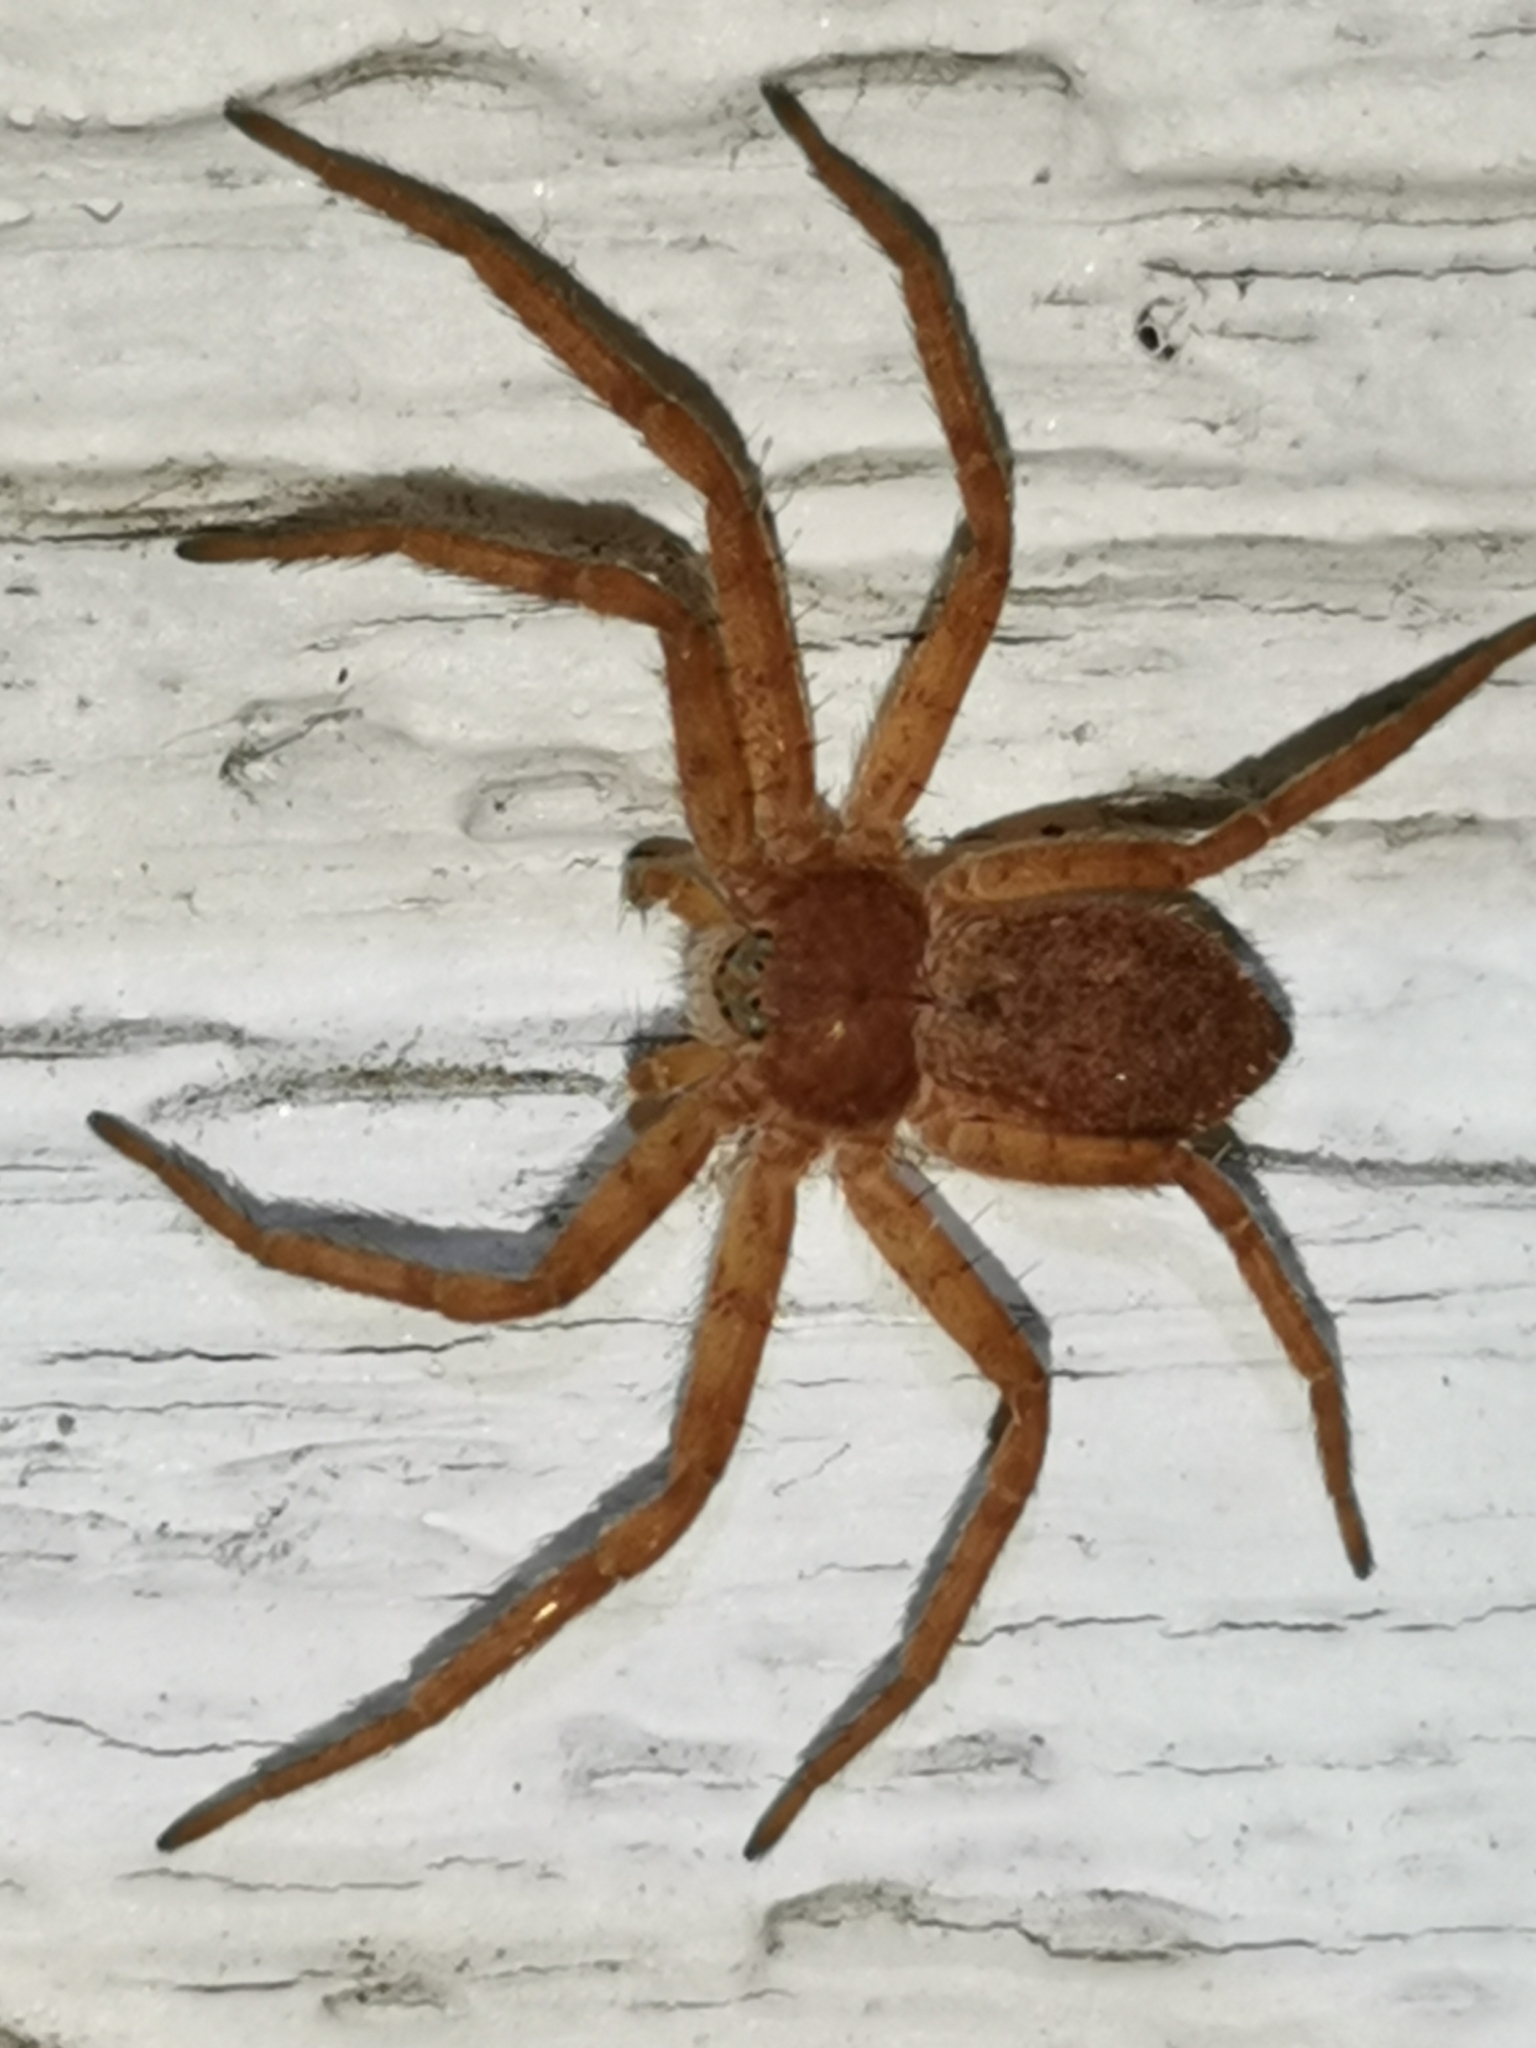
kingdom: Animalia
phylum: Arthropoda
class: Arachnida
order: Araneae
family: Philodromidae
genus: Philodromus
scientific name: Philodromus fuscomarginatus
